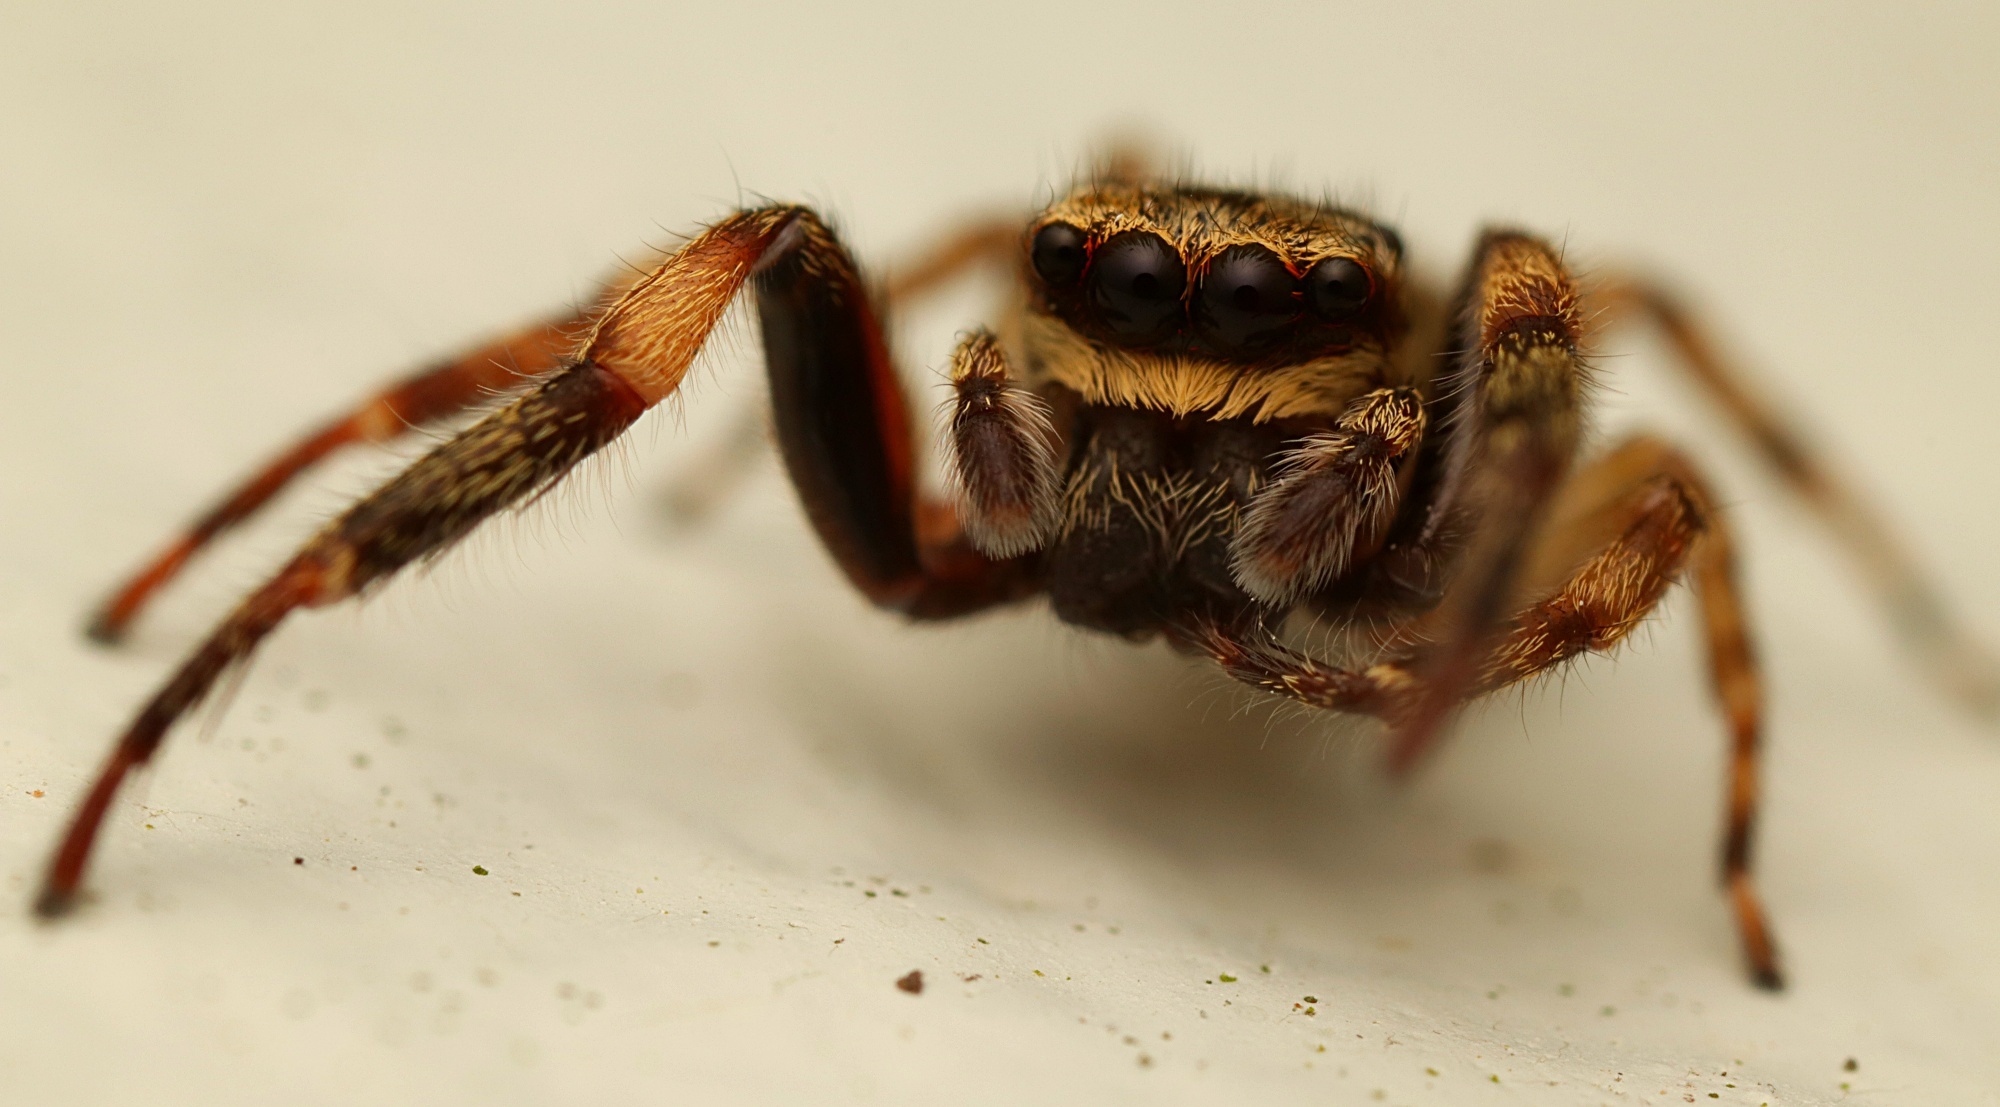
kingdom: Animalia
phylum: Arthropoda
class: Arachnida
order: Araneae
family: Salticidae
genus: Trite
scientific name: Trite auricoma
